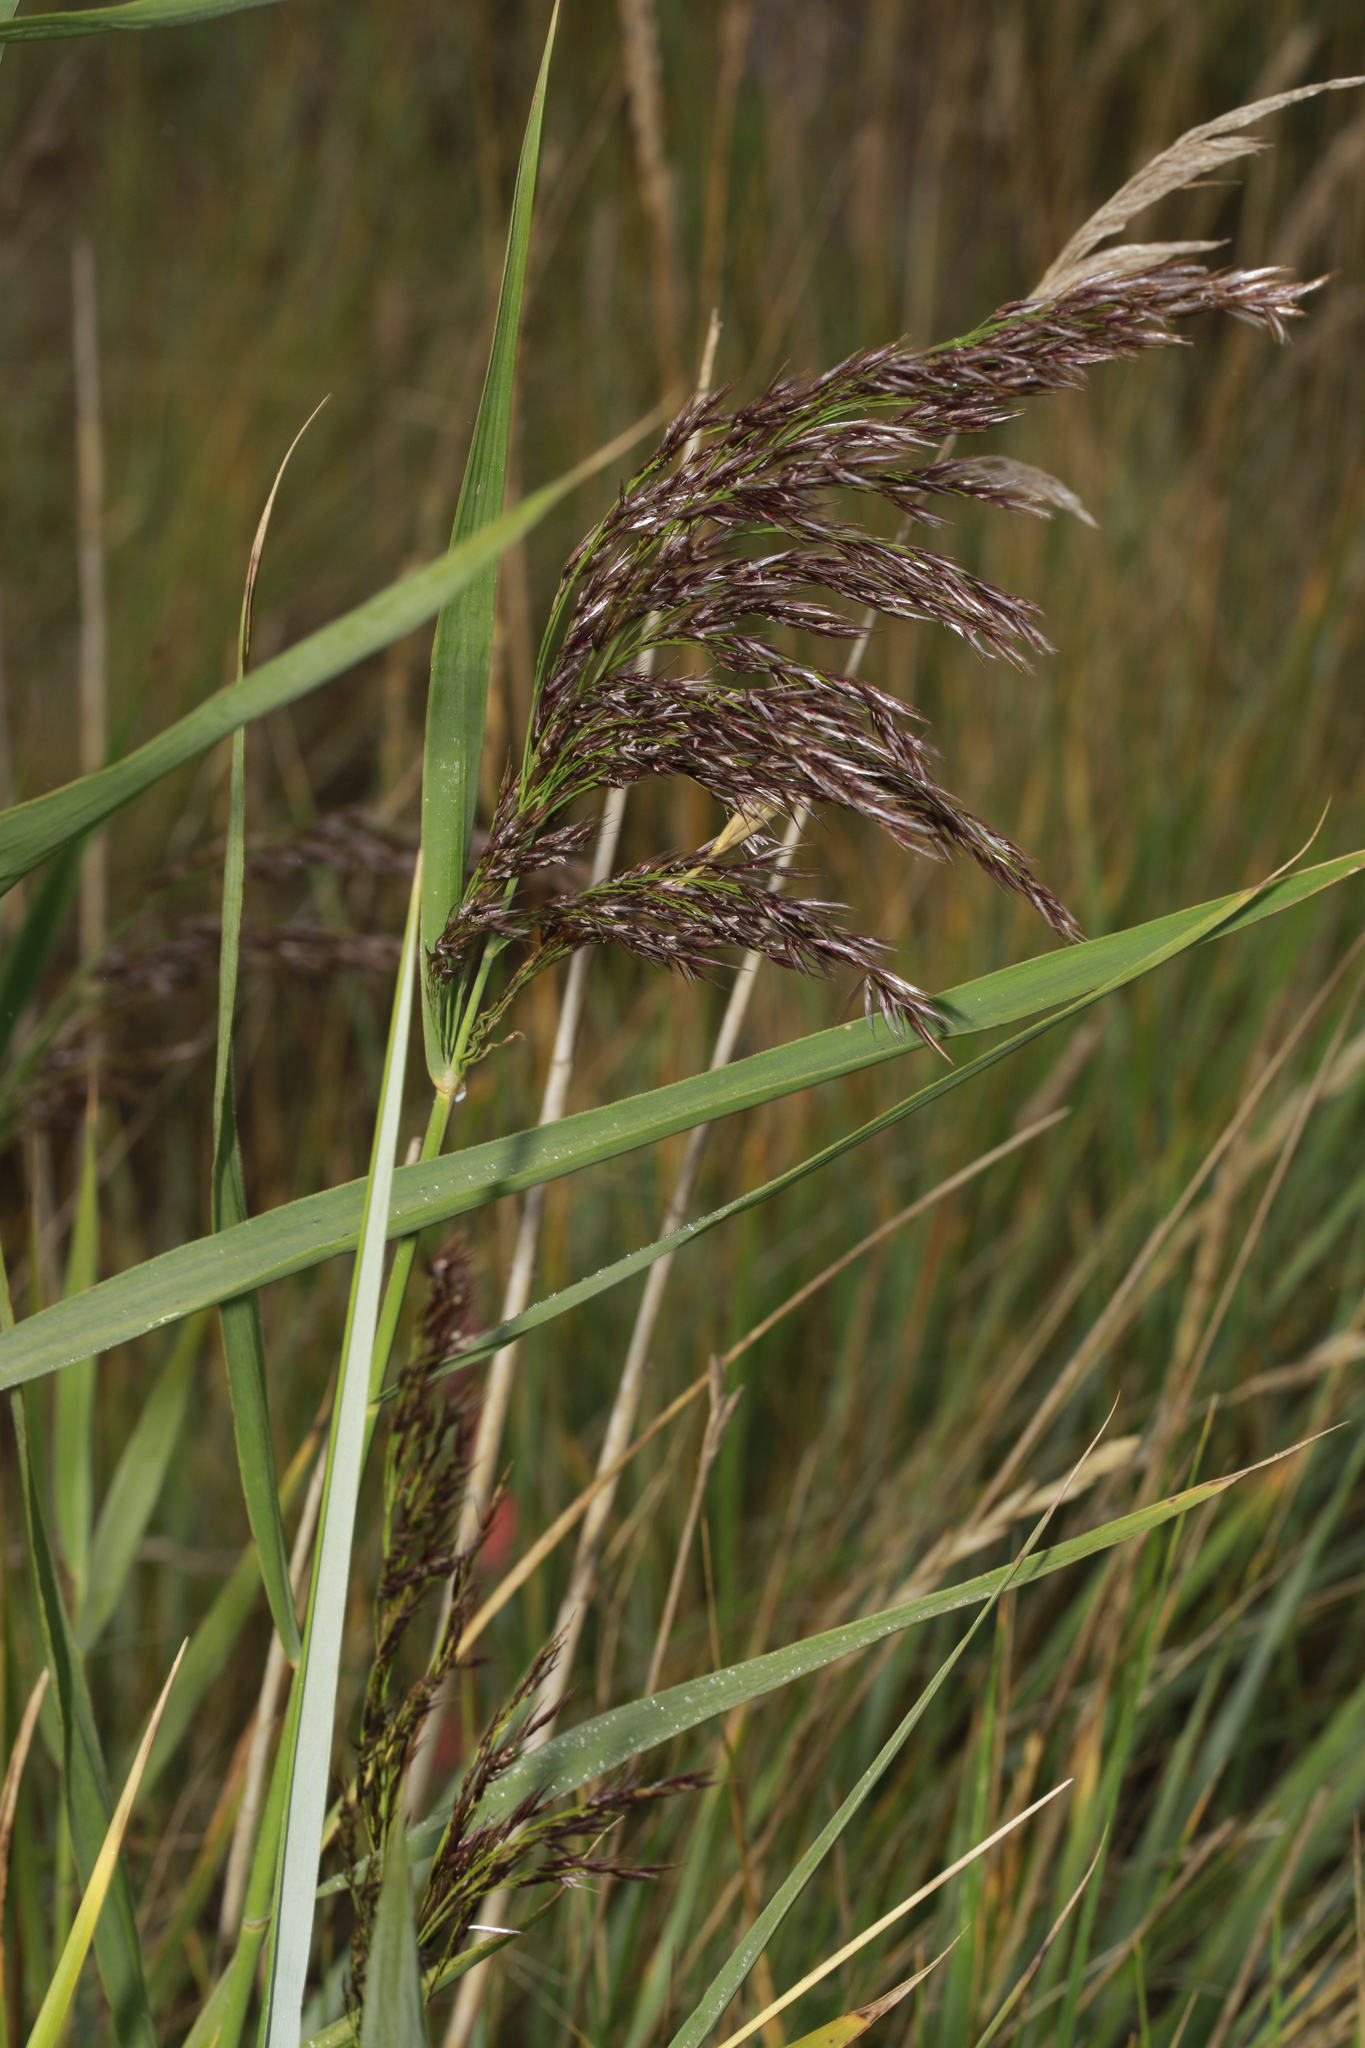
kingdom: Plantae
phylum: Tracheophyta
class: Liliopsida
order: Poales
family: Poaceae
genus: Phragmites
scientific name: Phragmites australis
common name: Common reed
